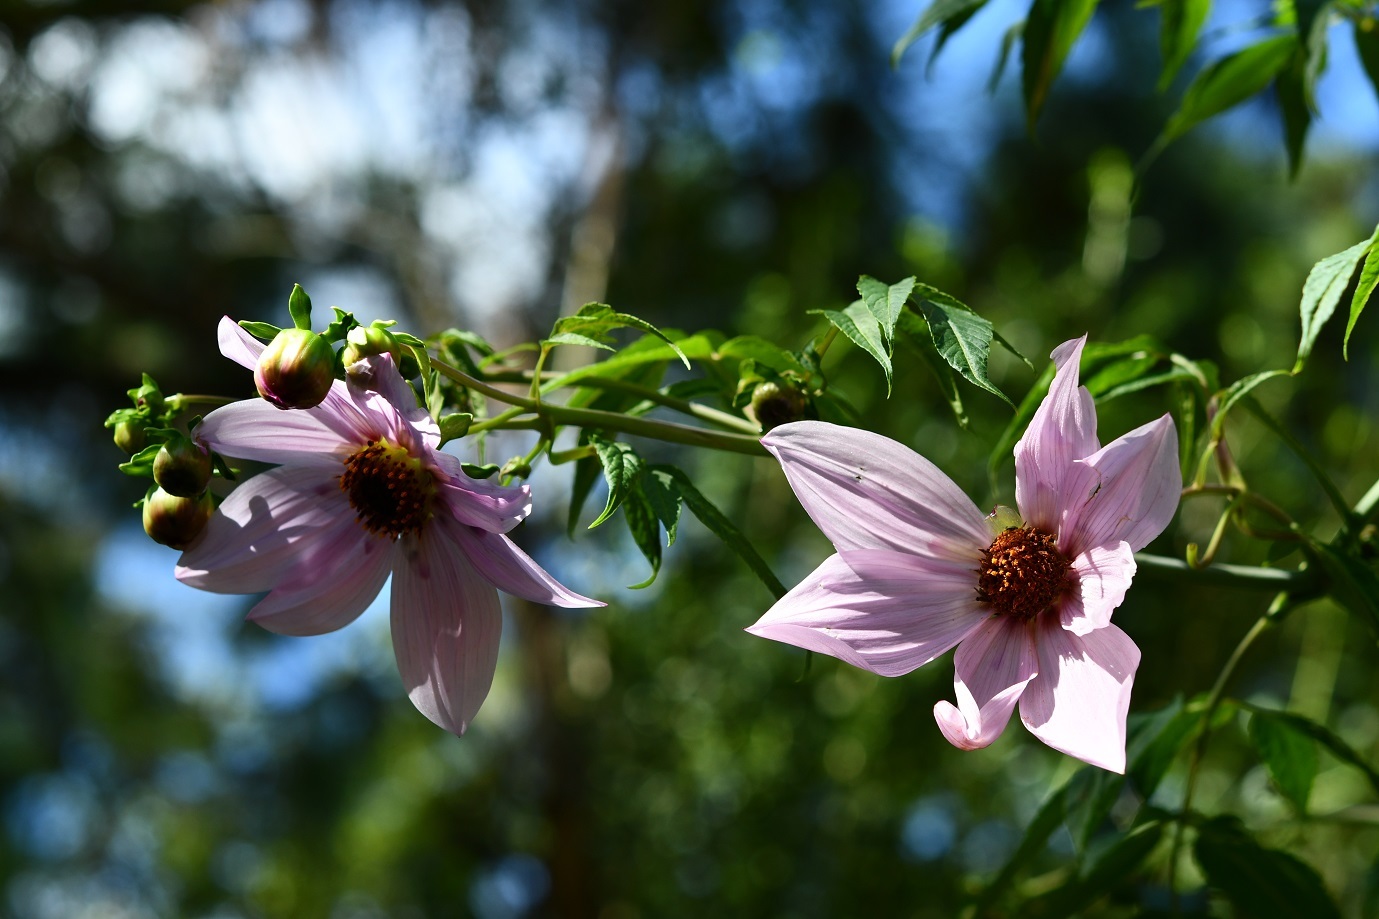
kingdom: Plantae
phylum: Tracheophyta
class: Magnoliopsida
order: Asterales
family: Asteraceae
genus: Dahlia
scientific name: Dahlia imperialis
